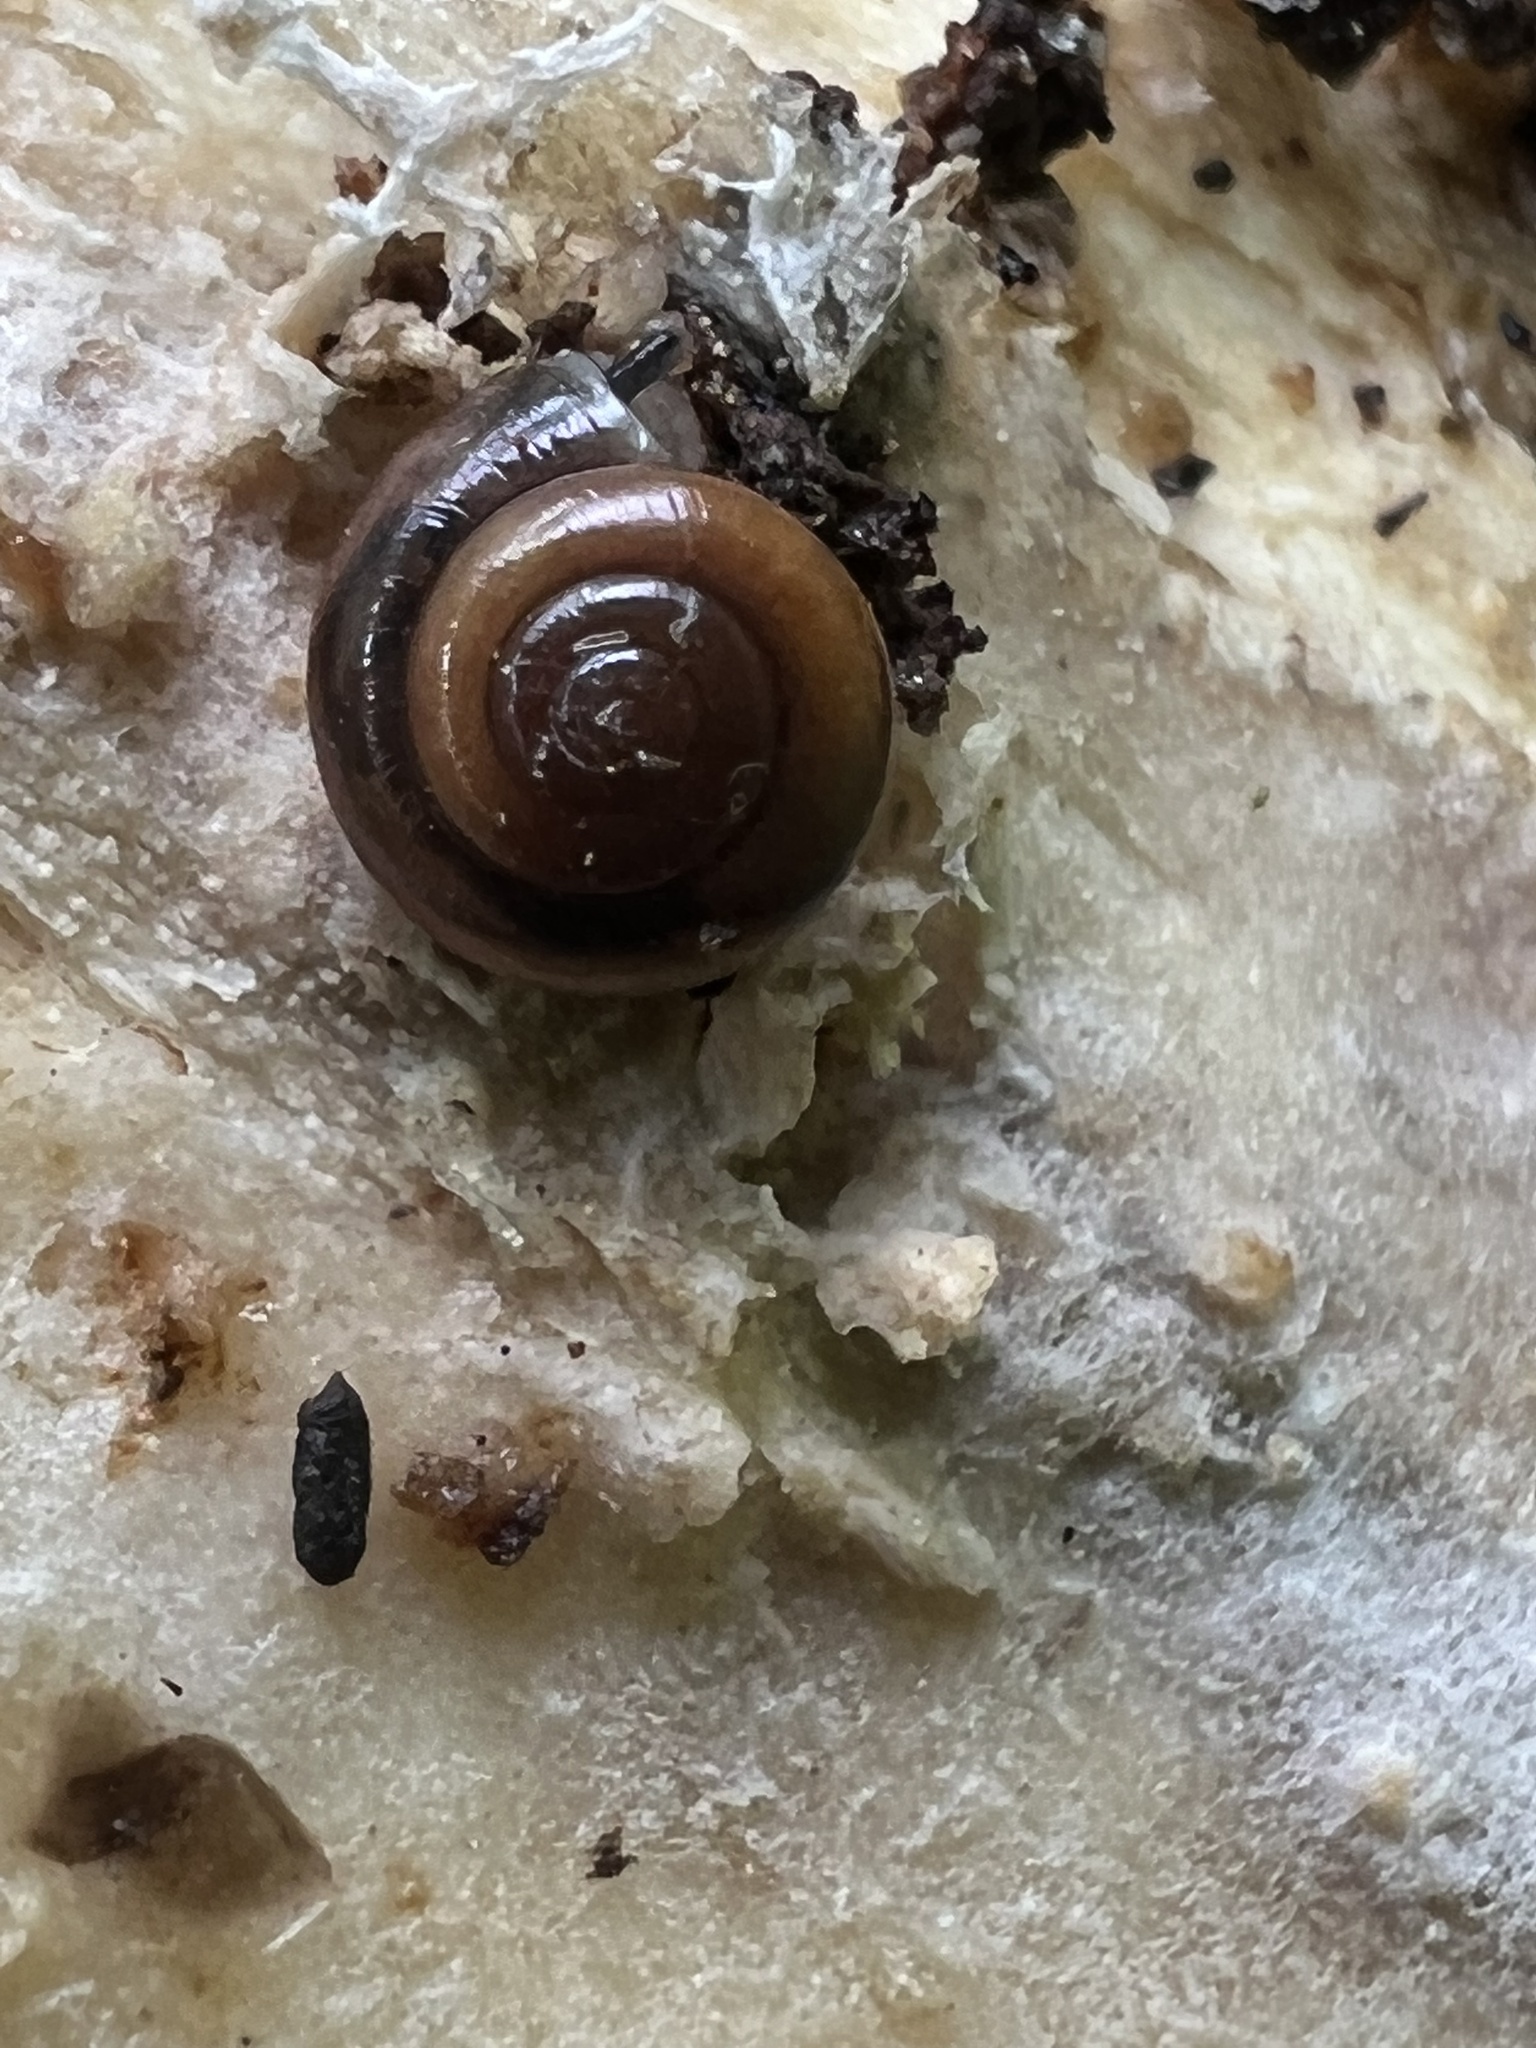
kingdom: Animalia
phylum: Mollusca
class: Gastropoda
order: Stylommatophora
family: Gastrodontidae
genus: Zonitoides
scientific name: Zonitoides arboreus
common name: Quick gloss
